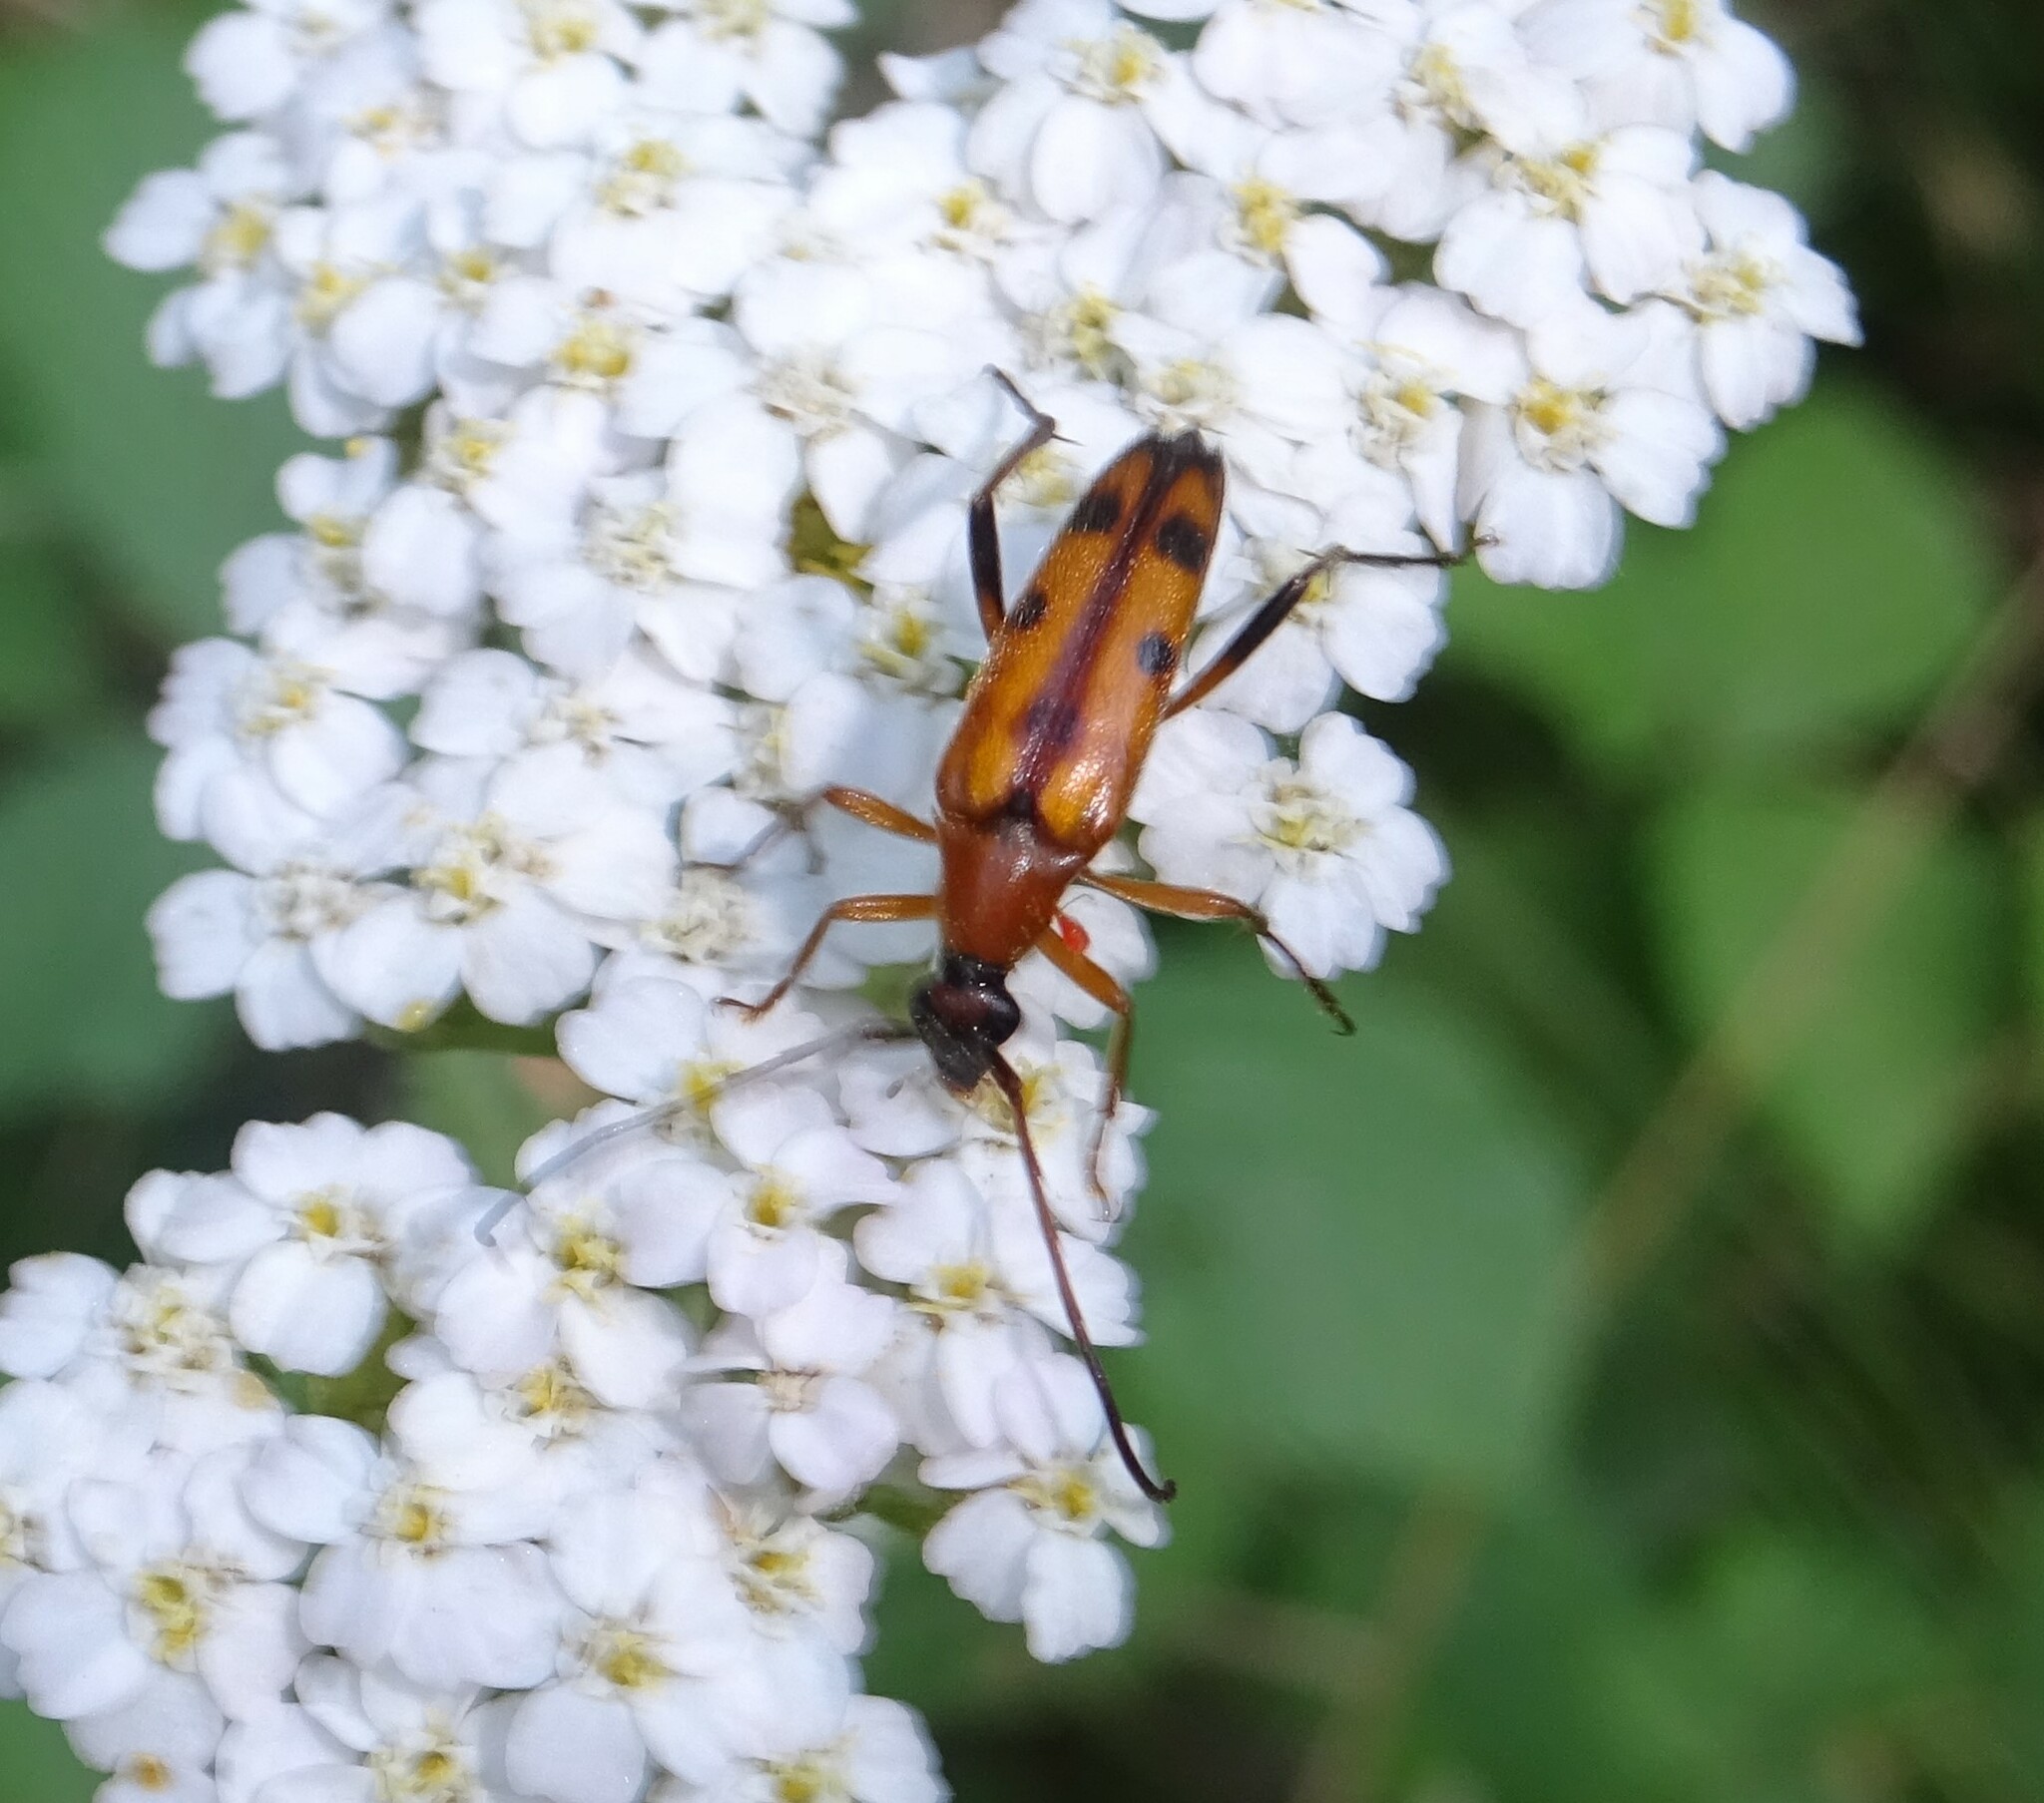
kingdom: Animalia
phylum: Arthropoda
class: Insecta
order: Coleoptera
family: Cerambycidae
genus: Stenurella
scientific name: Stenurella septempunctata
